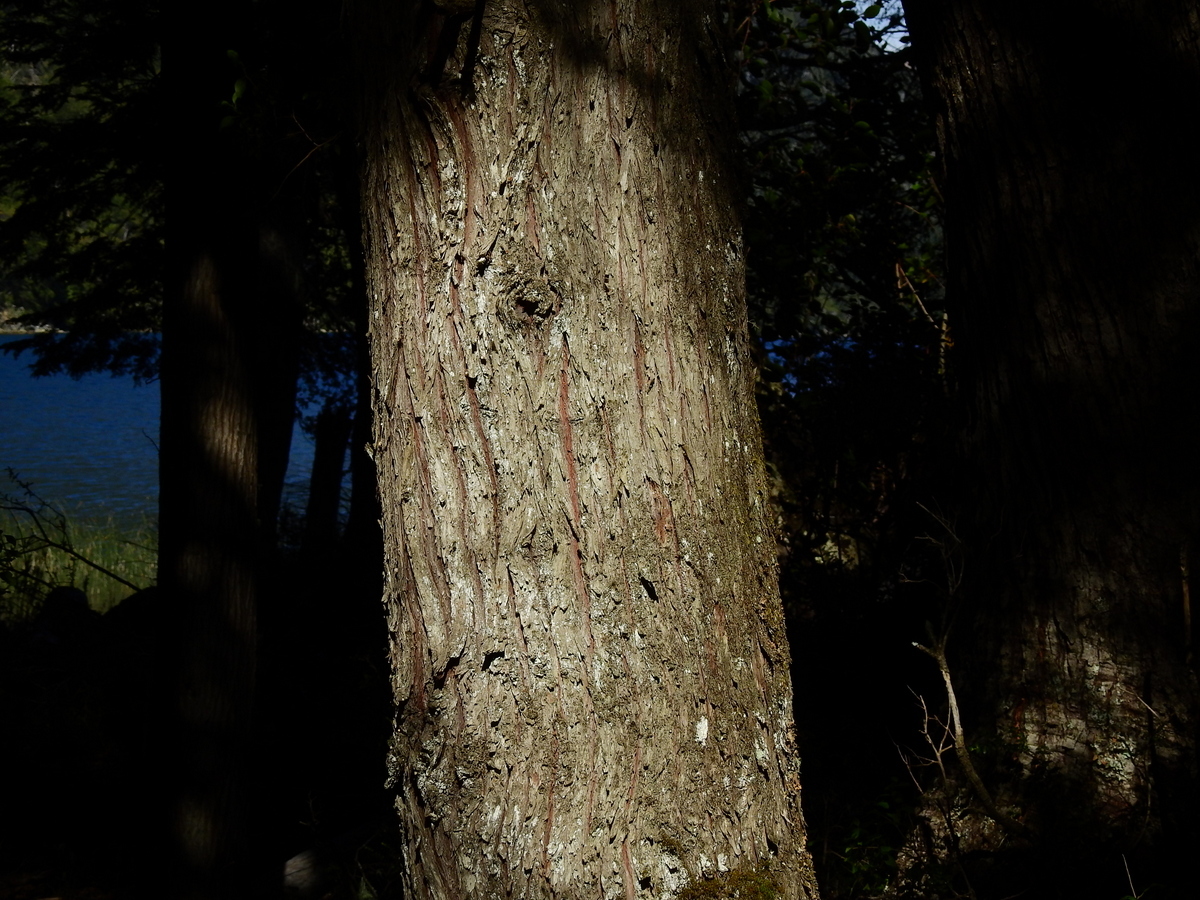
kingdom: Plantae
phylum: Tracheophyta
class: Pinopsida
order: Pinales
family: Cupressaceae
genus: Austrocedrus
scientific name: Austrocedrus chilensis
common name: Chilean incense-cedar
